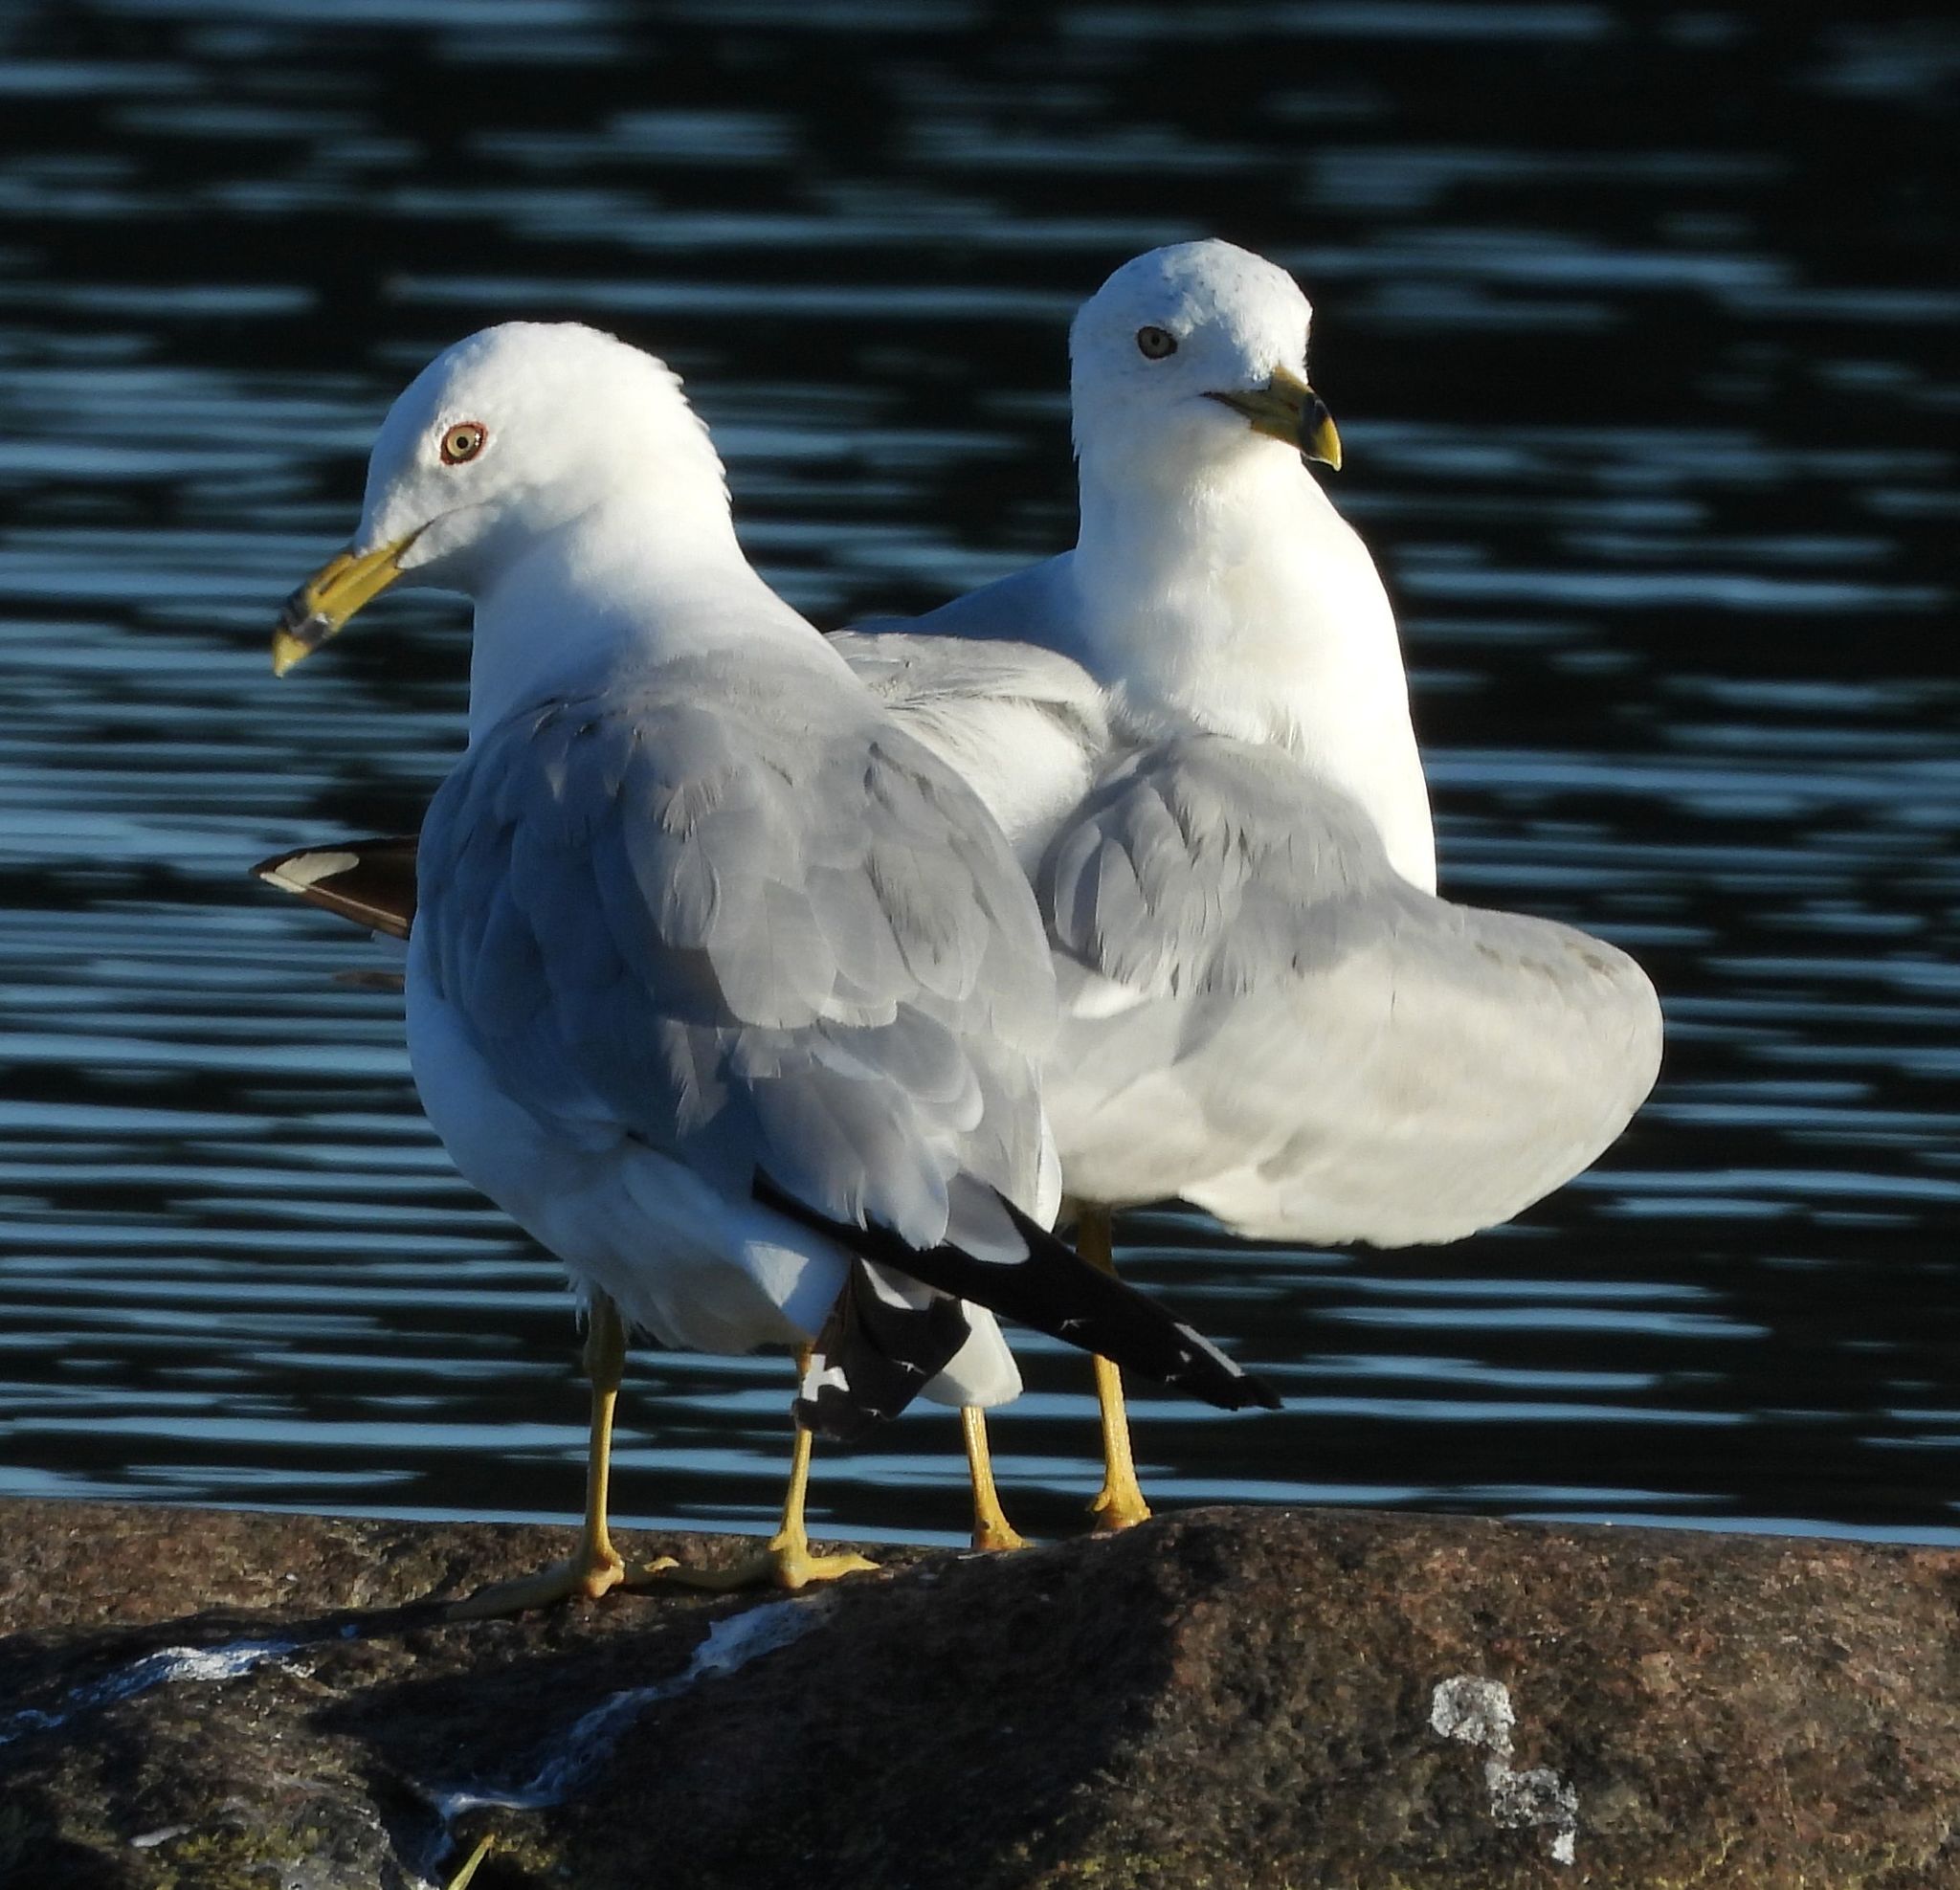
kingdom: Animalia
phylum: Chordata
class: Aves
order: Charadriiformes
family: Laridae
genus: Larus
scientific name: Larus delawarensis
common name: Ring-billed gull
